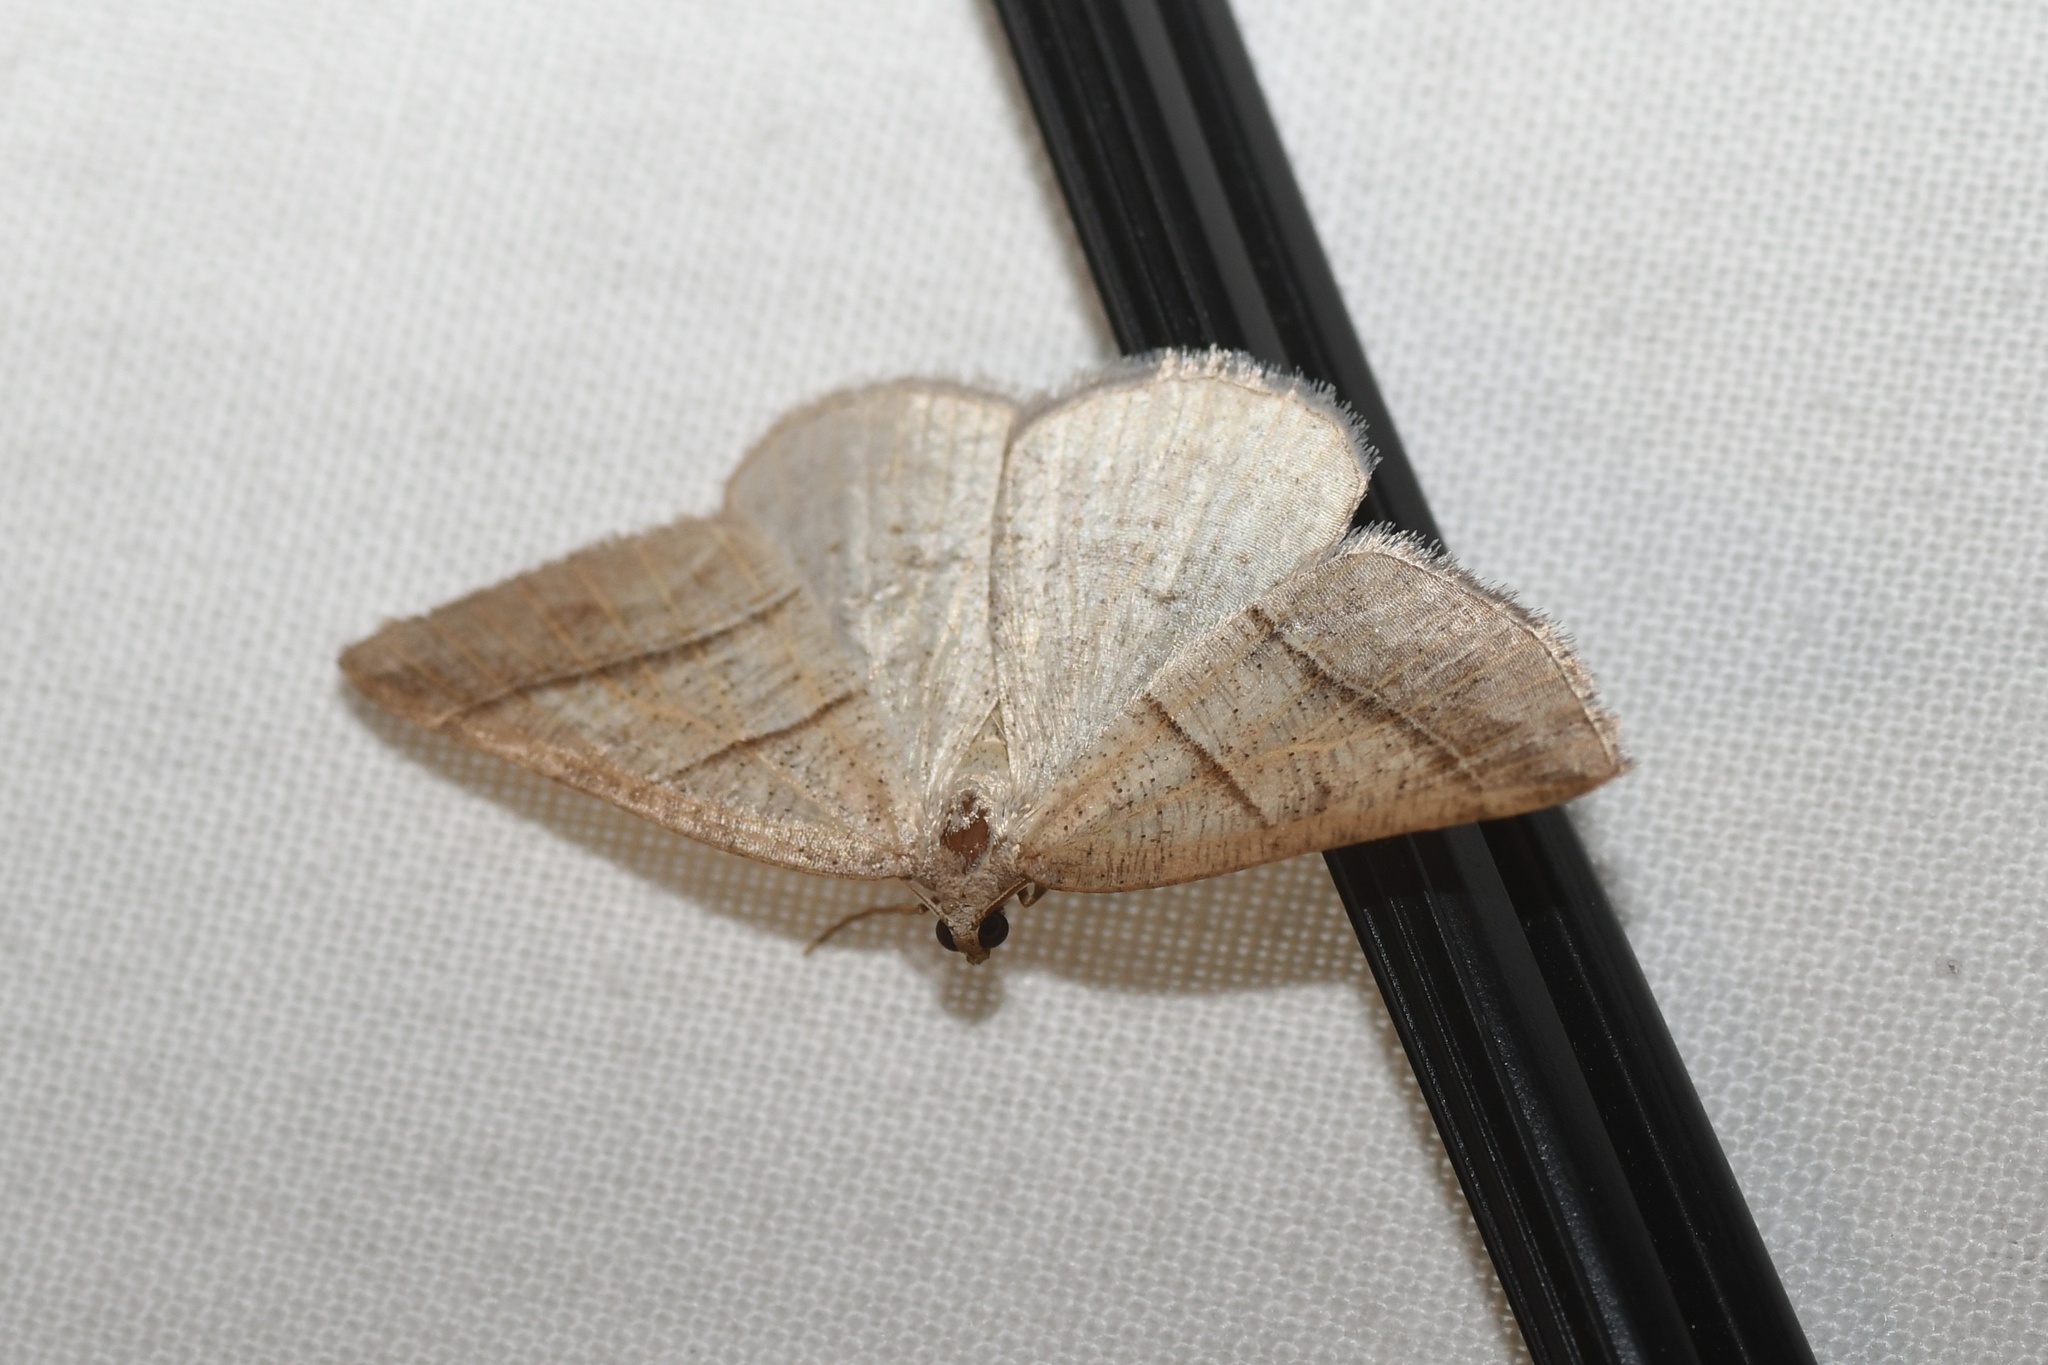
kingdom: Animalia
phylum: Arthropoda
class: Insecta
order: Lepidoptera
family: Pterophoridae
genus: Pterophorus
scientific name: Pterophorus Petrophora subaequaria
